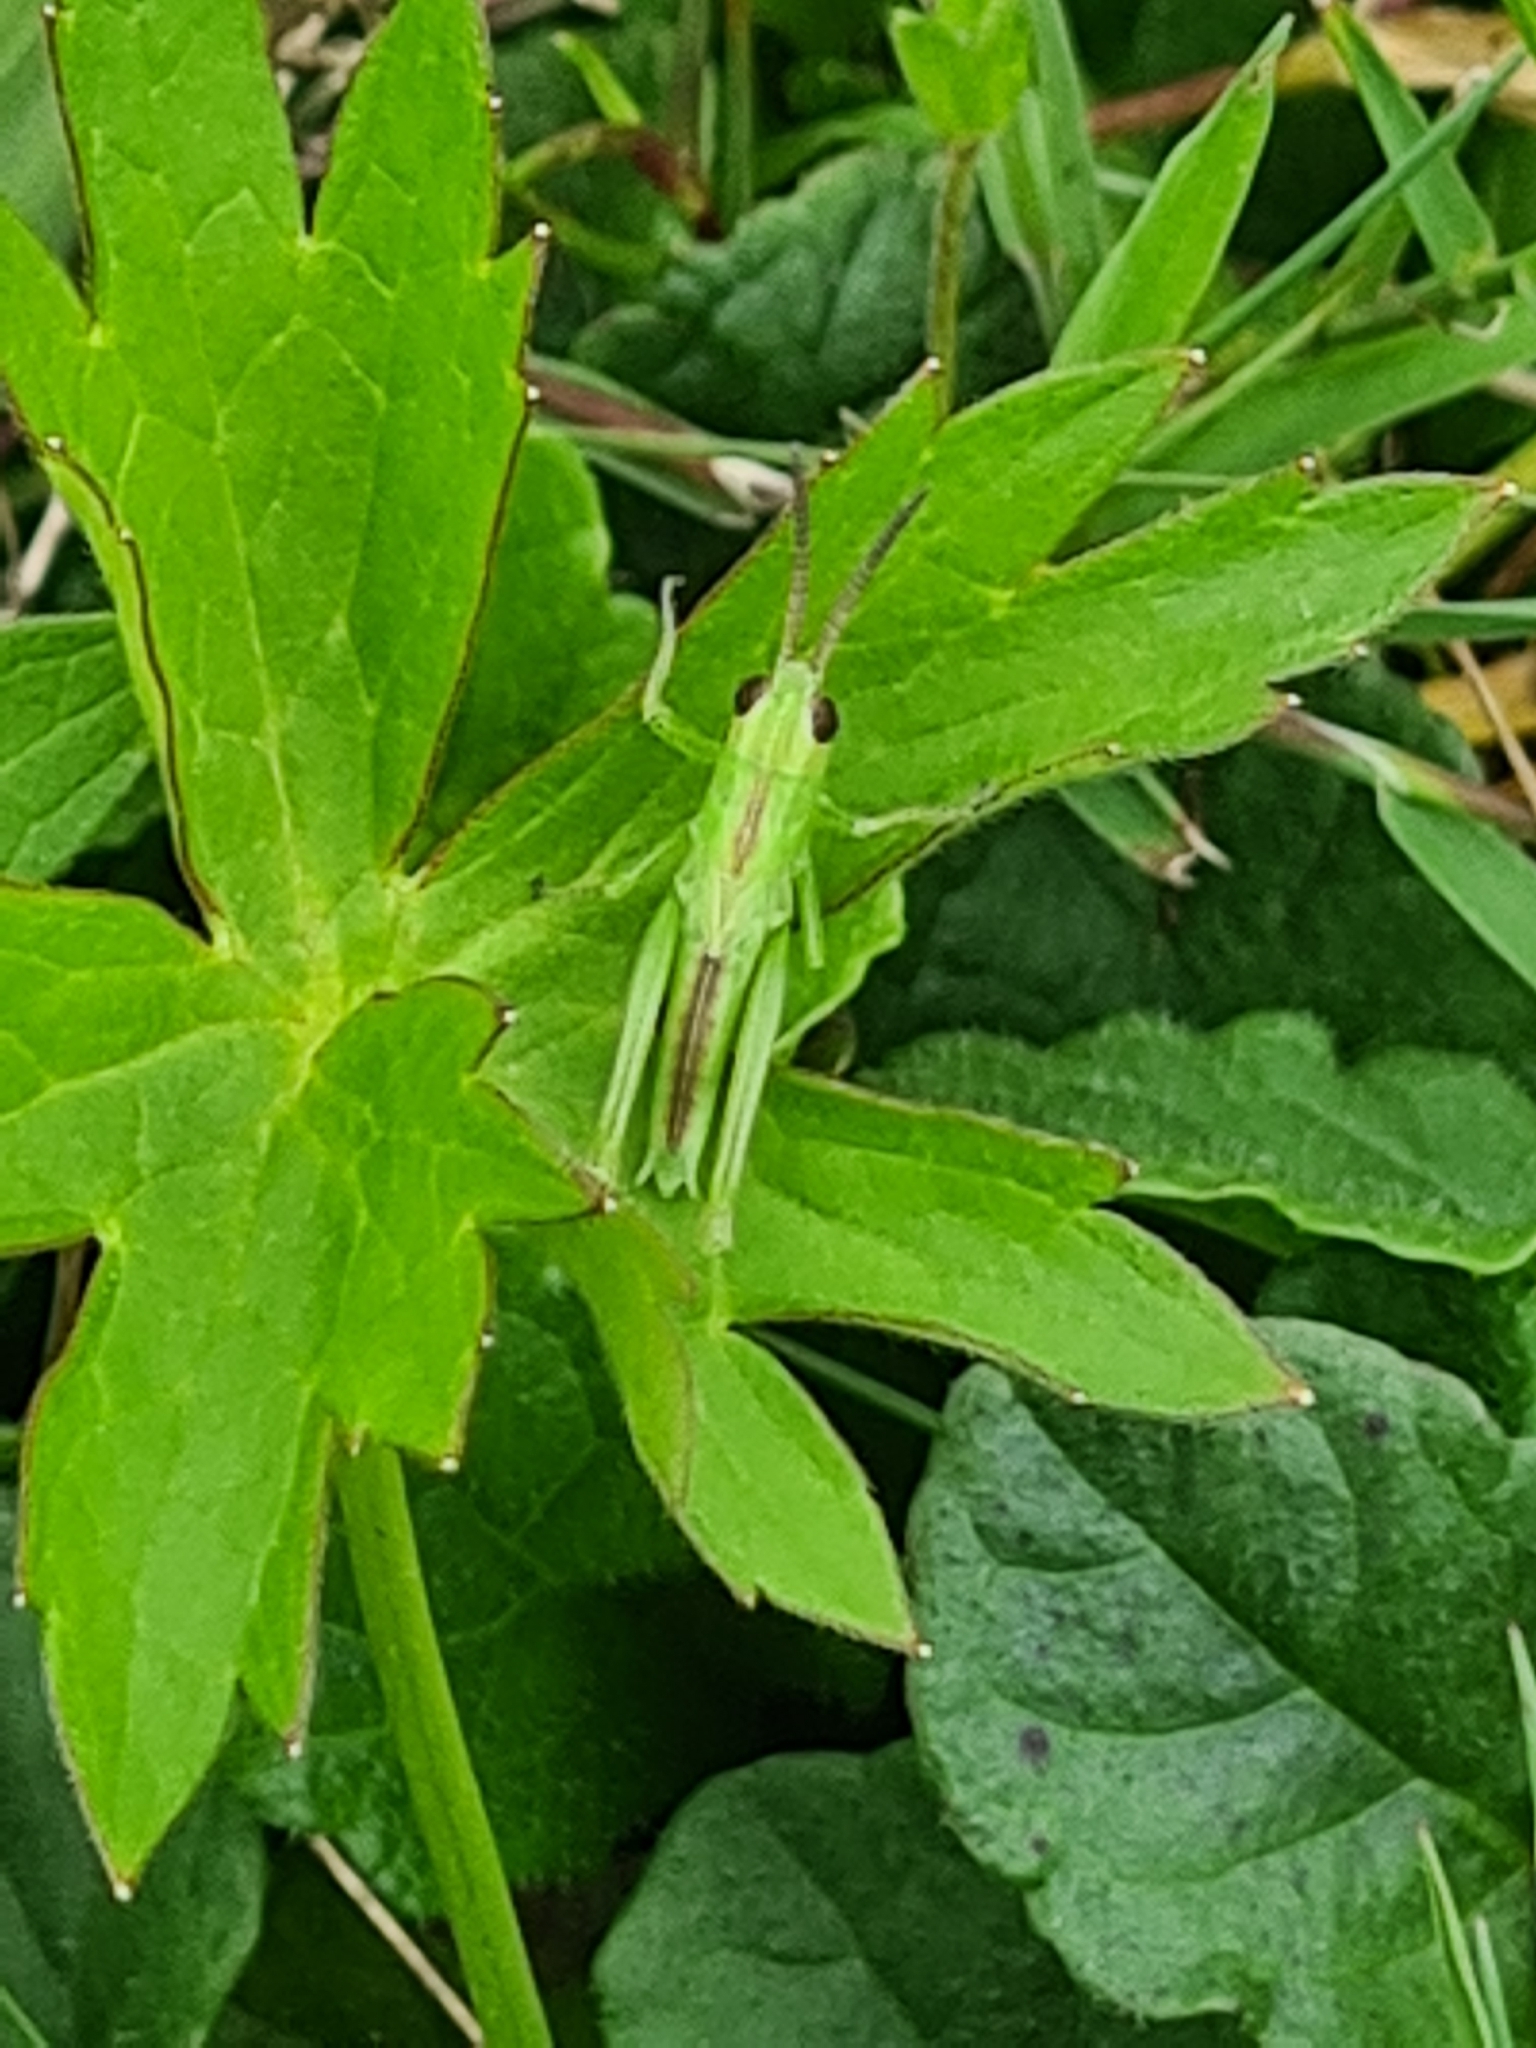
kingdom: Animalia
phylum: Arthropoda
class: Insecta
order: Orthoptera
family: Acrididae
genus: Mecostethus
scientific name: Mecostethus parapleurus
